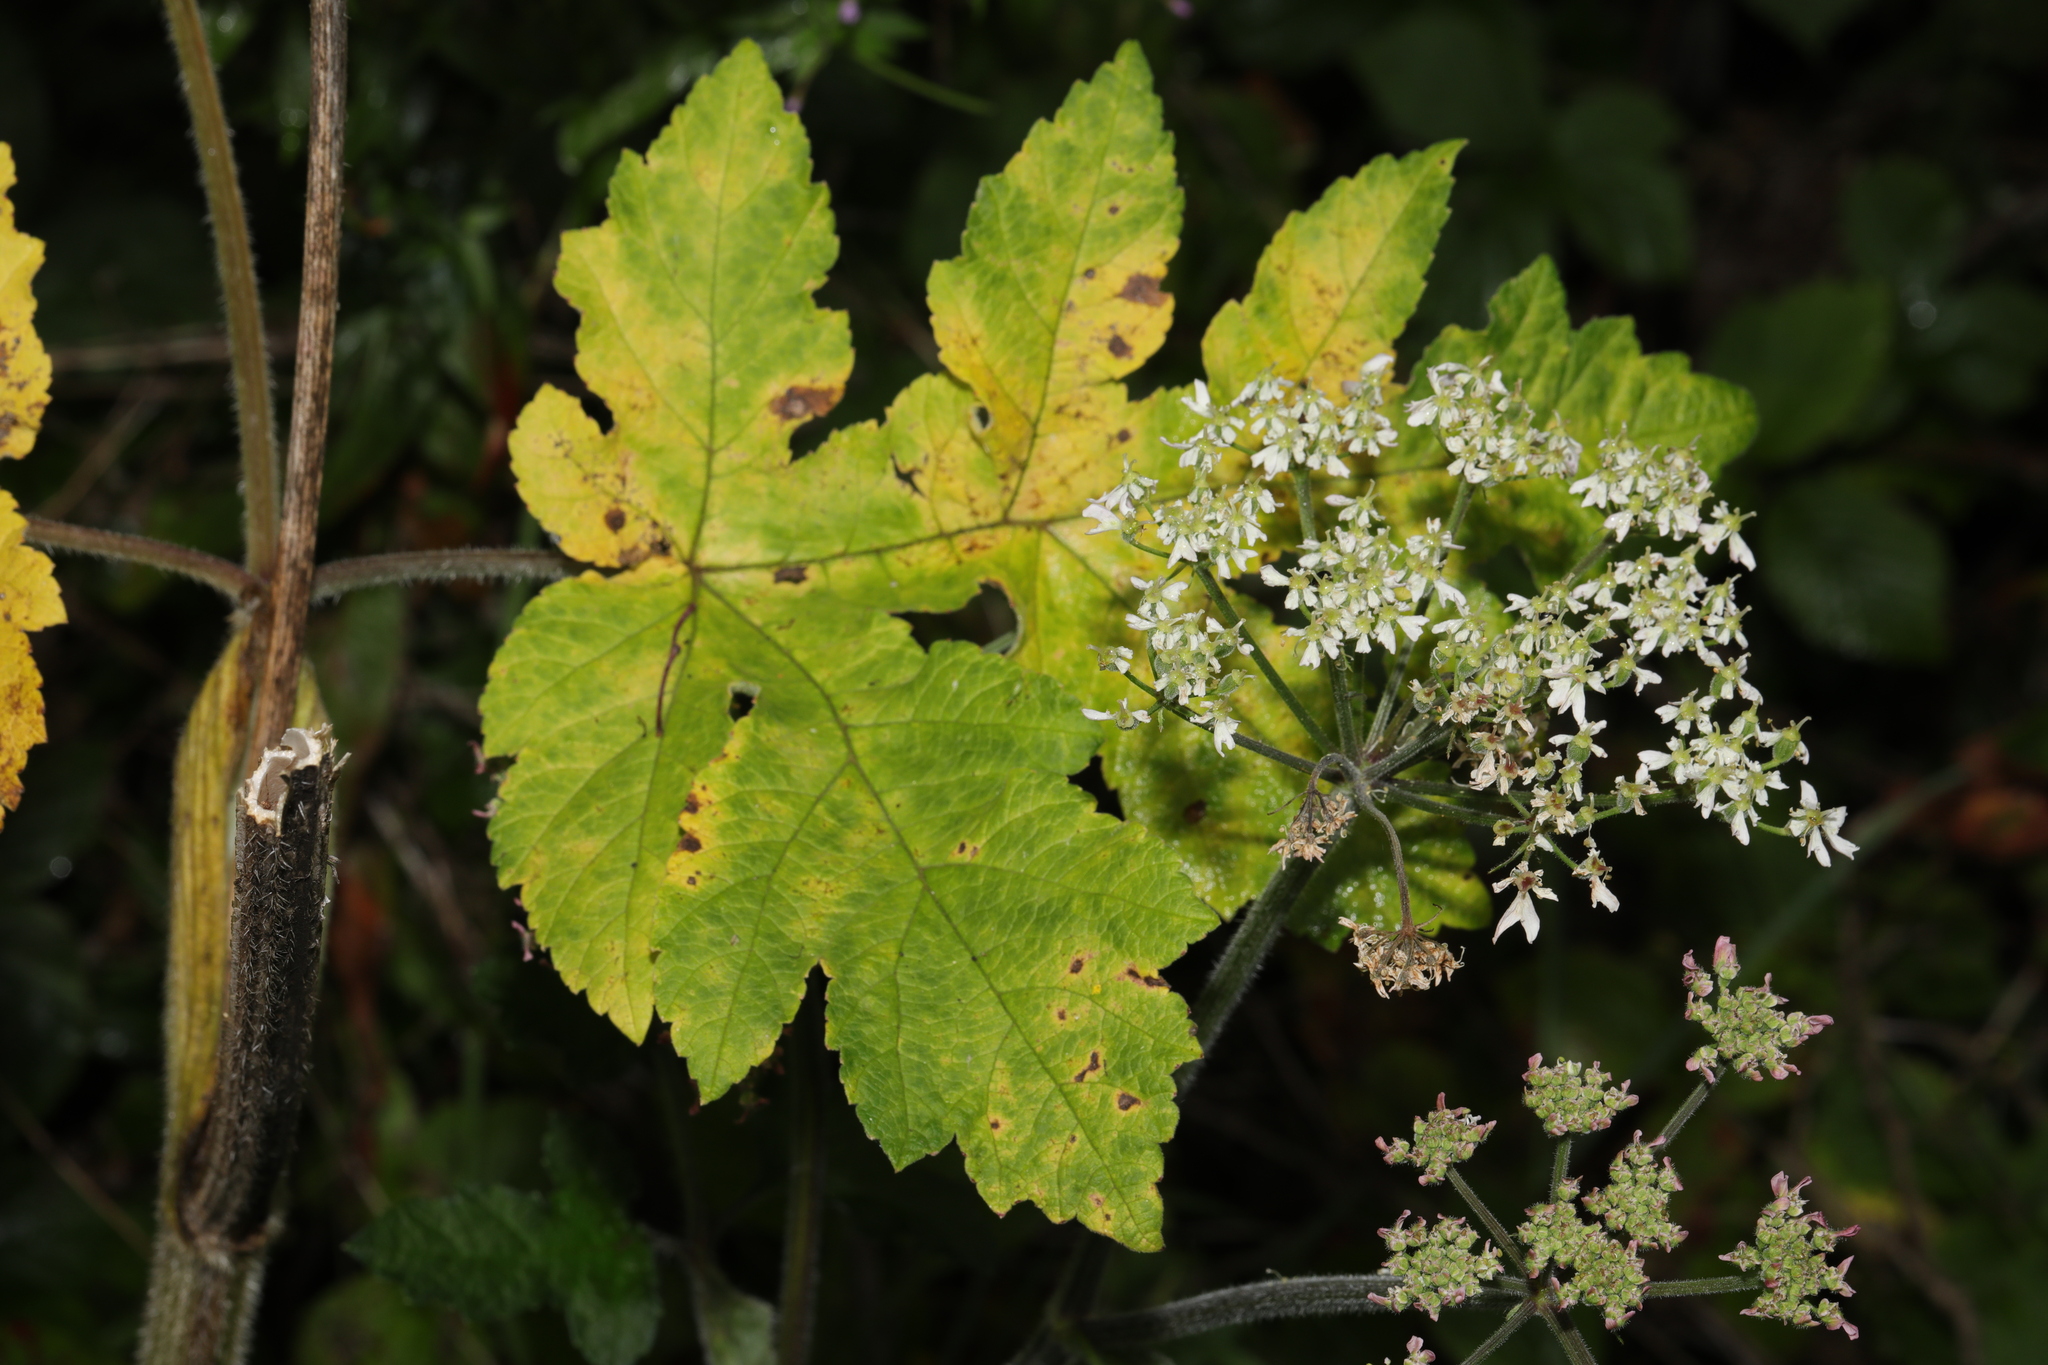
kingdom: Plantae
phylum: Tracheophyta
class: Magnoliopsida
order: Apiales
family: Apiaceae
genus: Heracleum
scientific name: Heracleum sphondylium
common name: Hogweed
